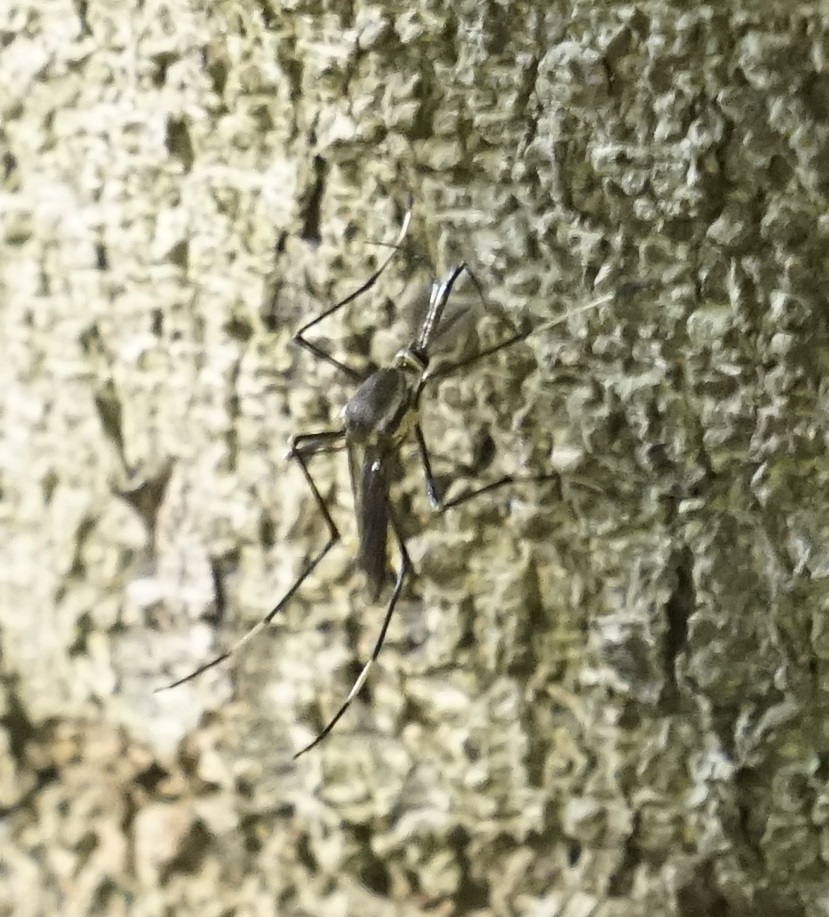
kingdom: Animalia
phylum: Arthropoda
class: Insecta
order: Diptera
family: Culicidae
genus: Toxorhynchites
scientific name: Toxorhynchites speciosus
